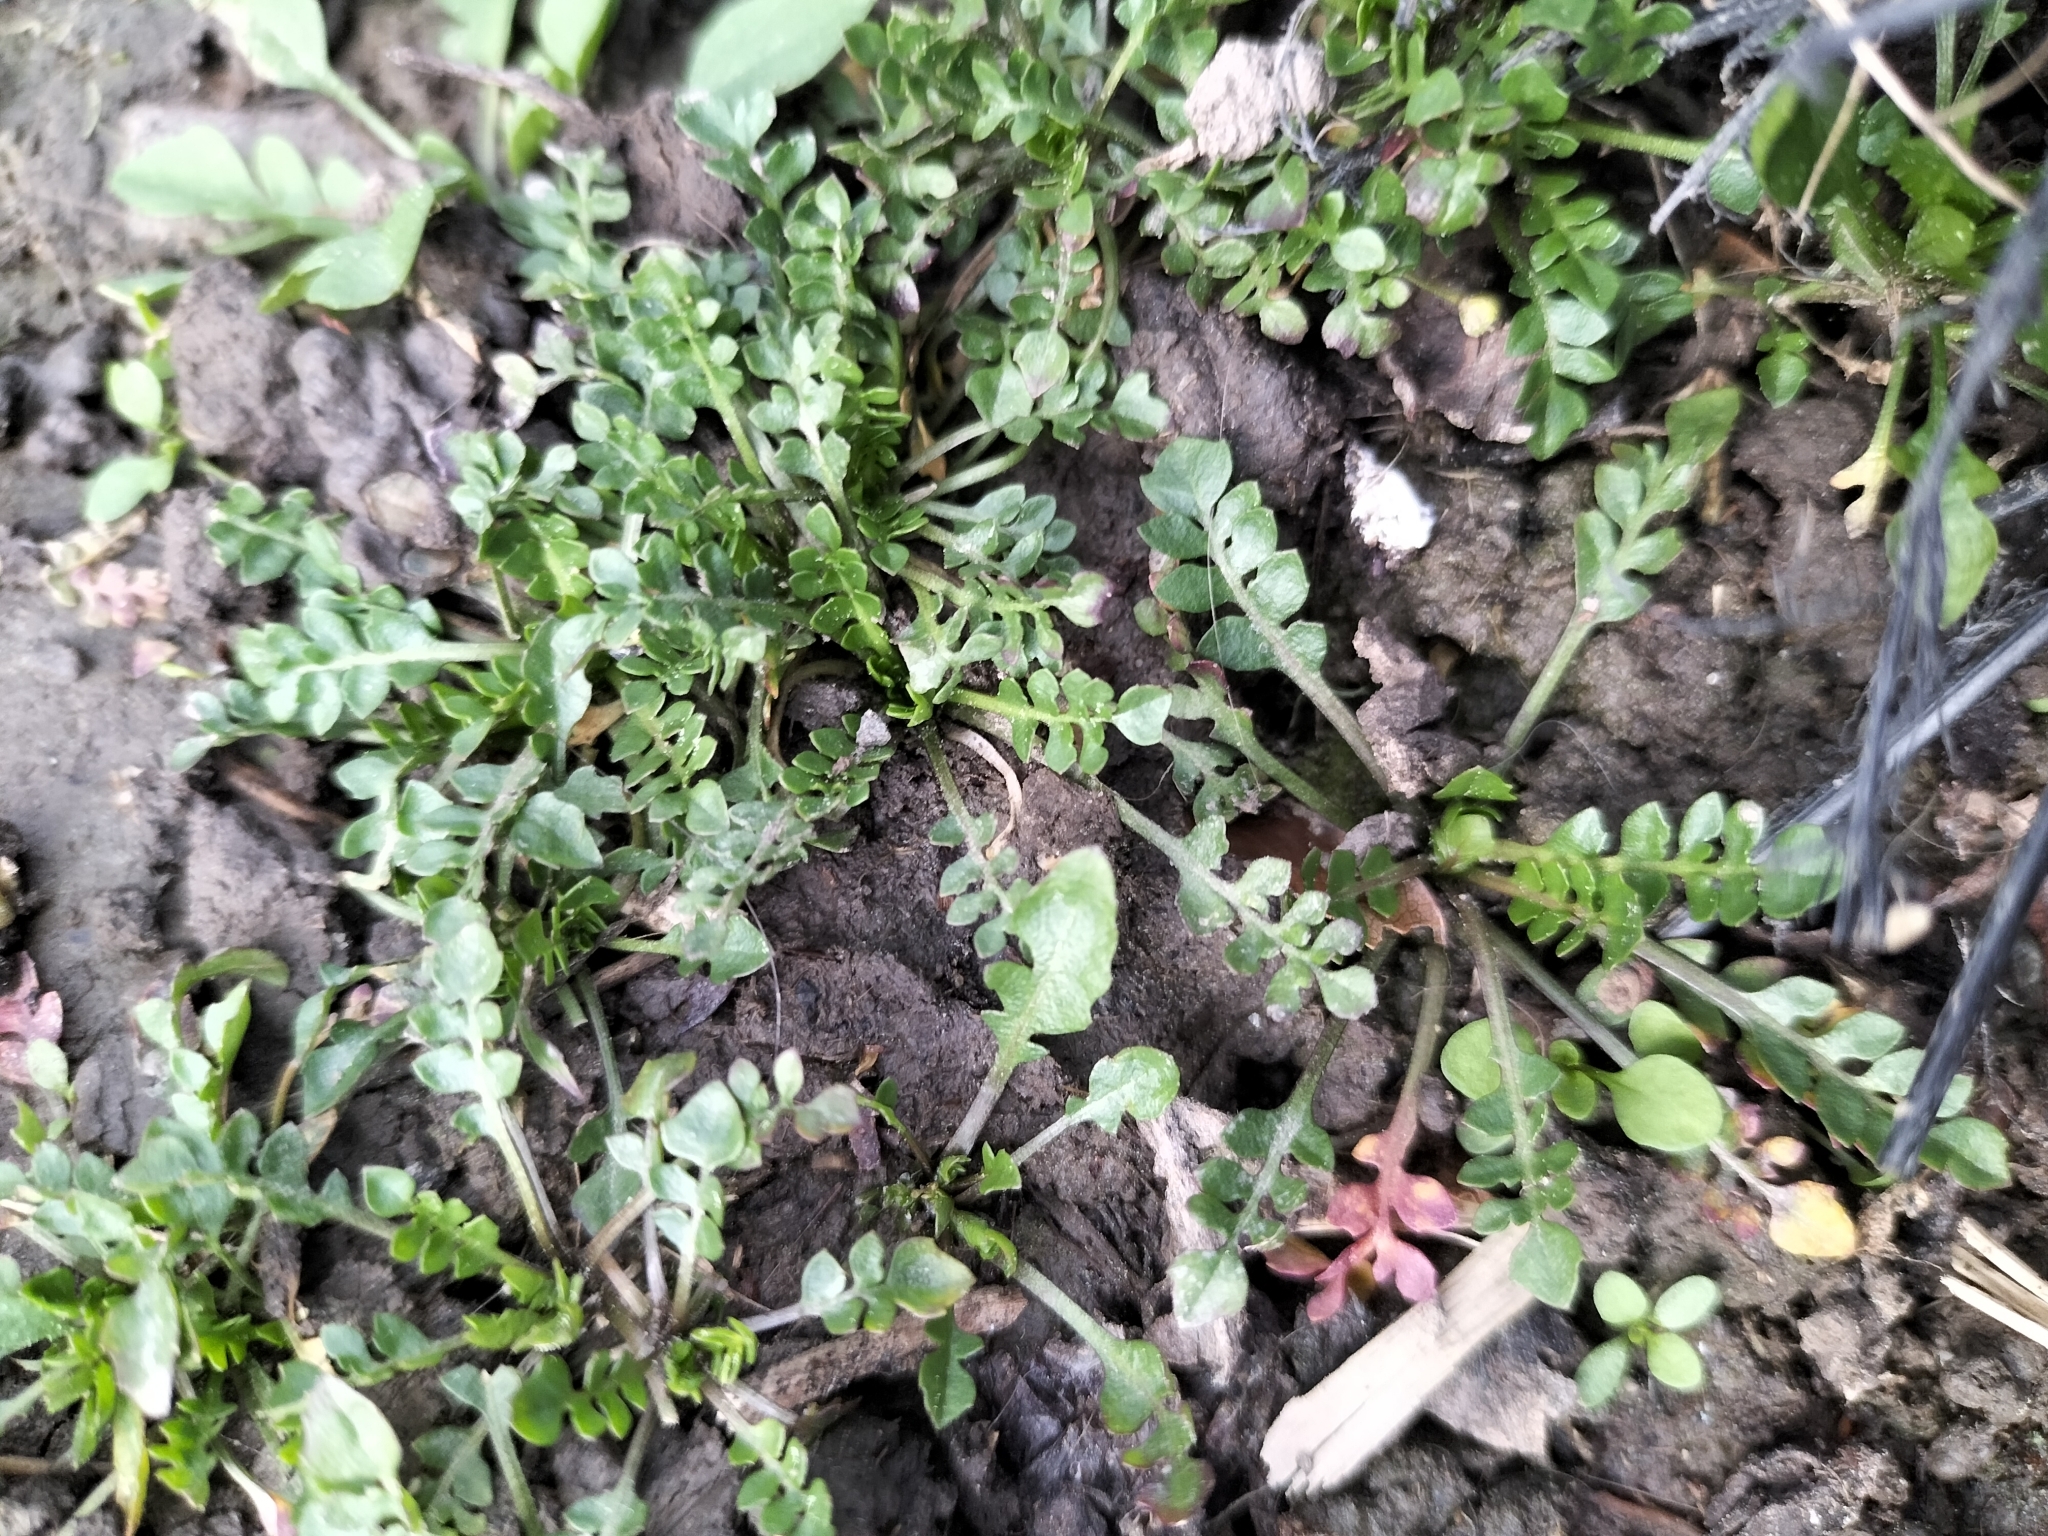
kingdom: Plantae
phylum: Tracheophyta
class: Magnoliopsida
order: Brassicales
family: Brassicaceae
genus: Capsella
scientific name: Capsella bursa-pastoris
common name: Shepherd's purse
